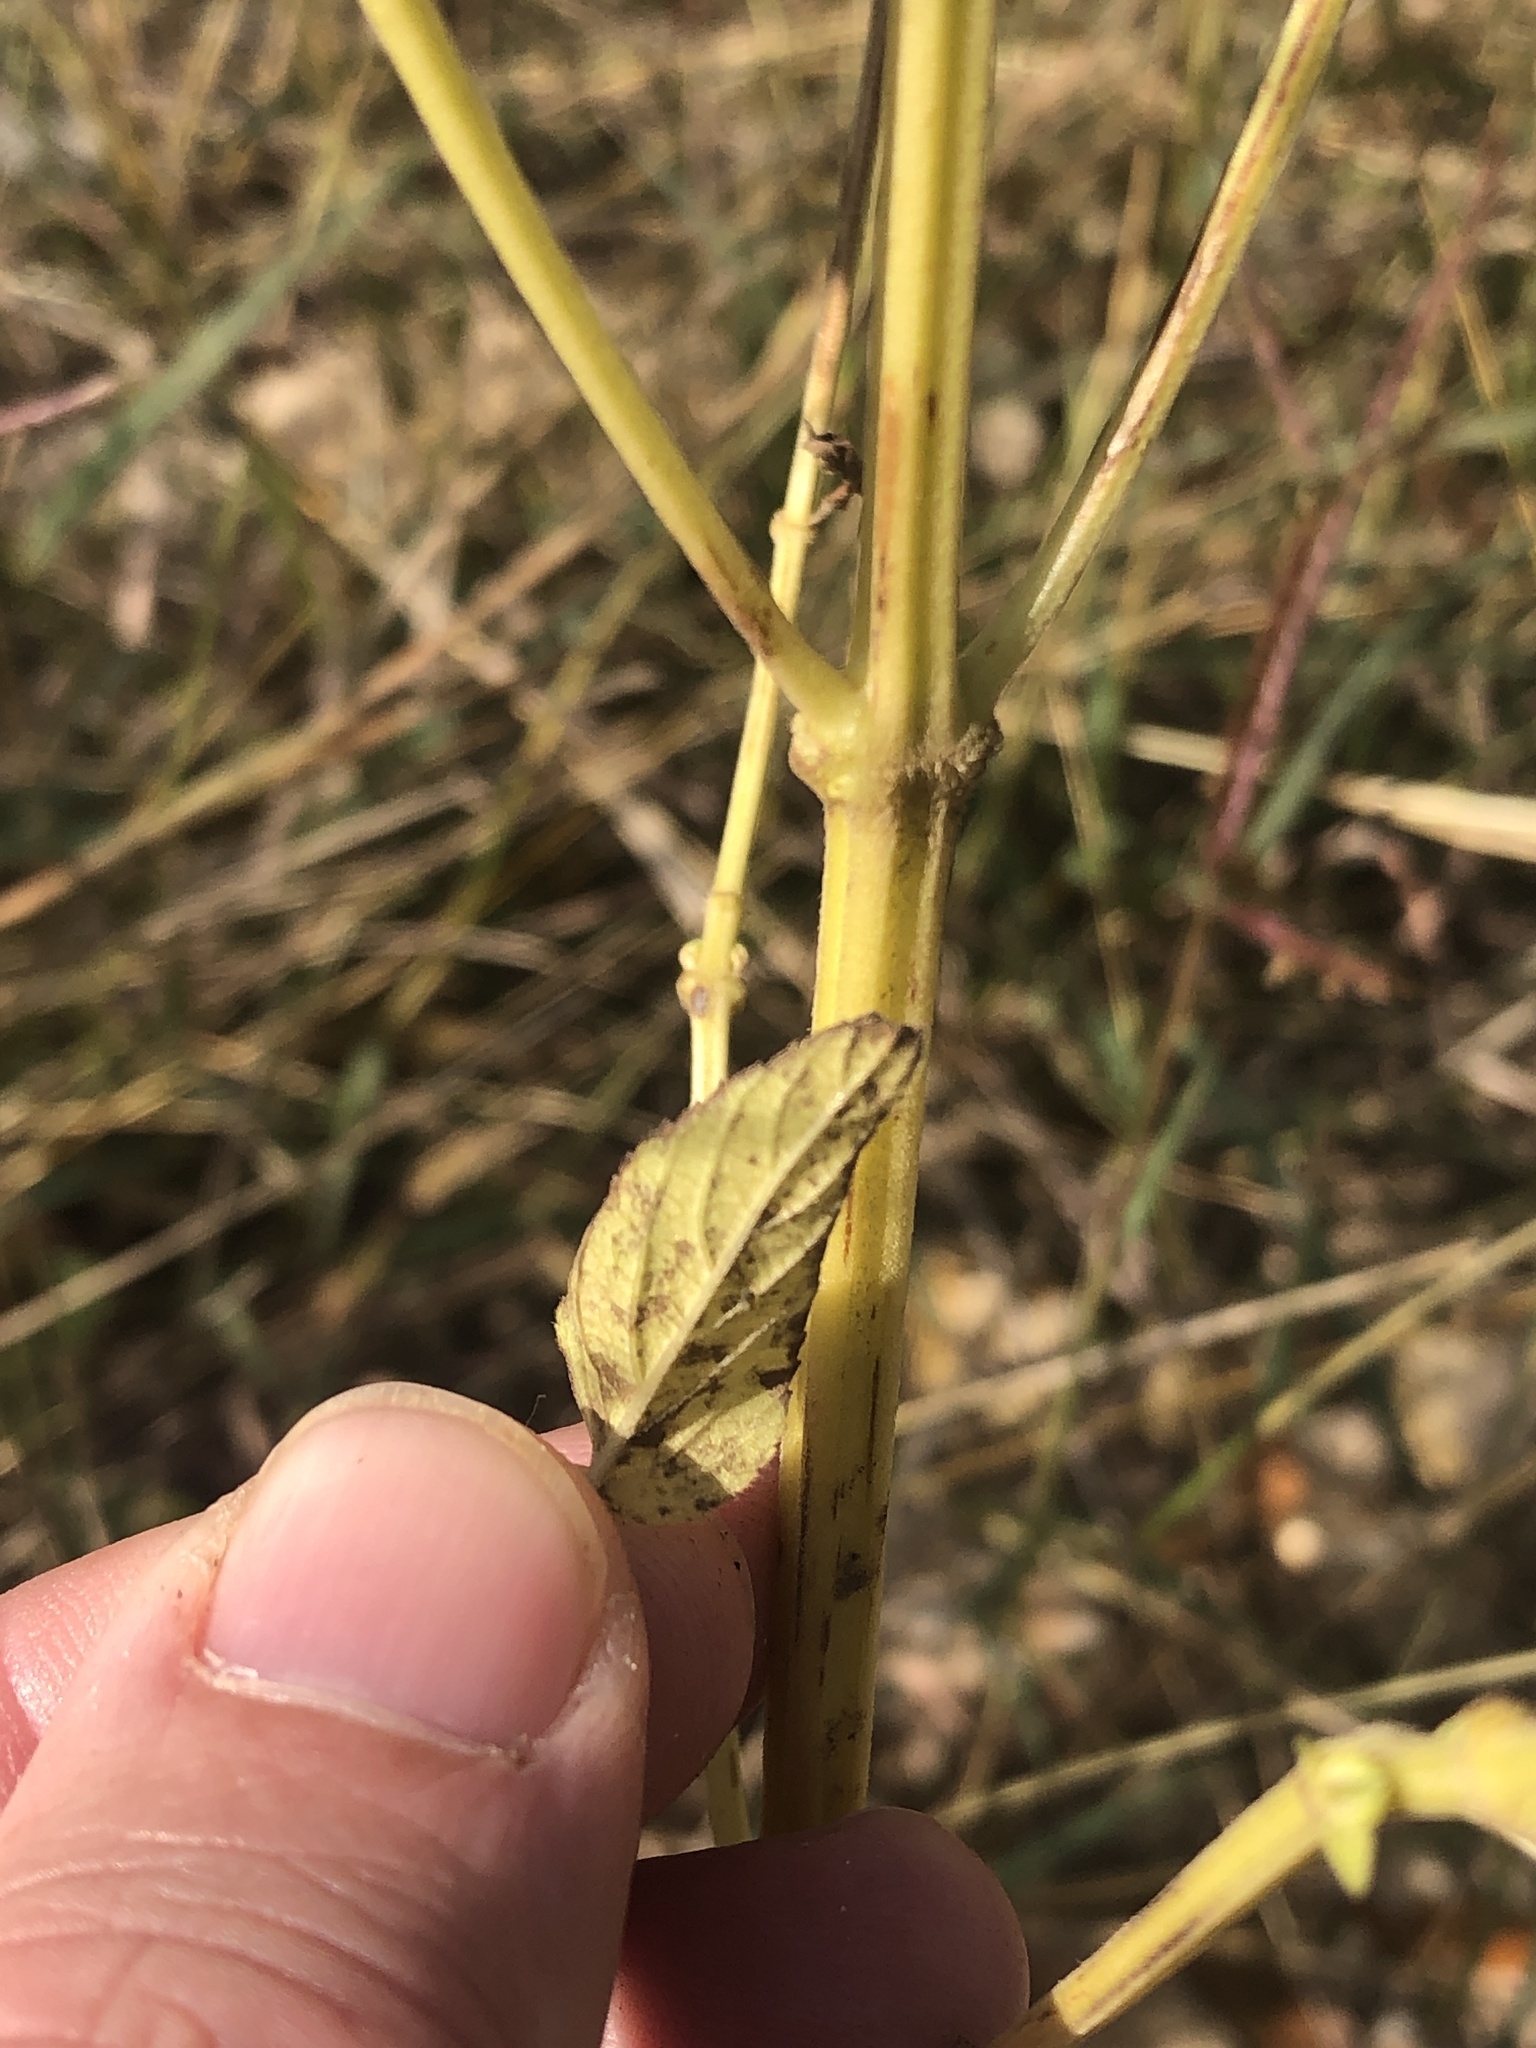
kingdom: Plantae
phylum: Tracheophyta
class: Magnoliopsida
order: Lamiales
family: Lamiaceae
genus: Salvia
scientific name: Salvia hispanica
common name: Chia
